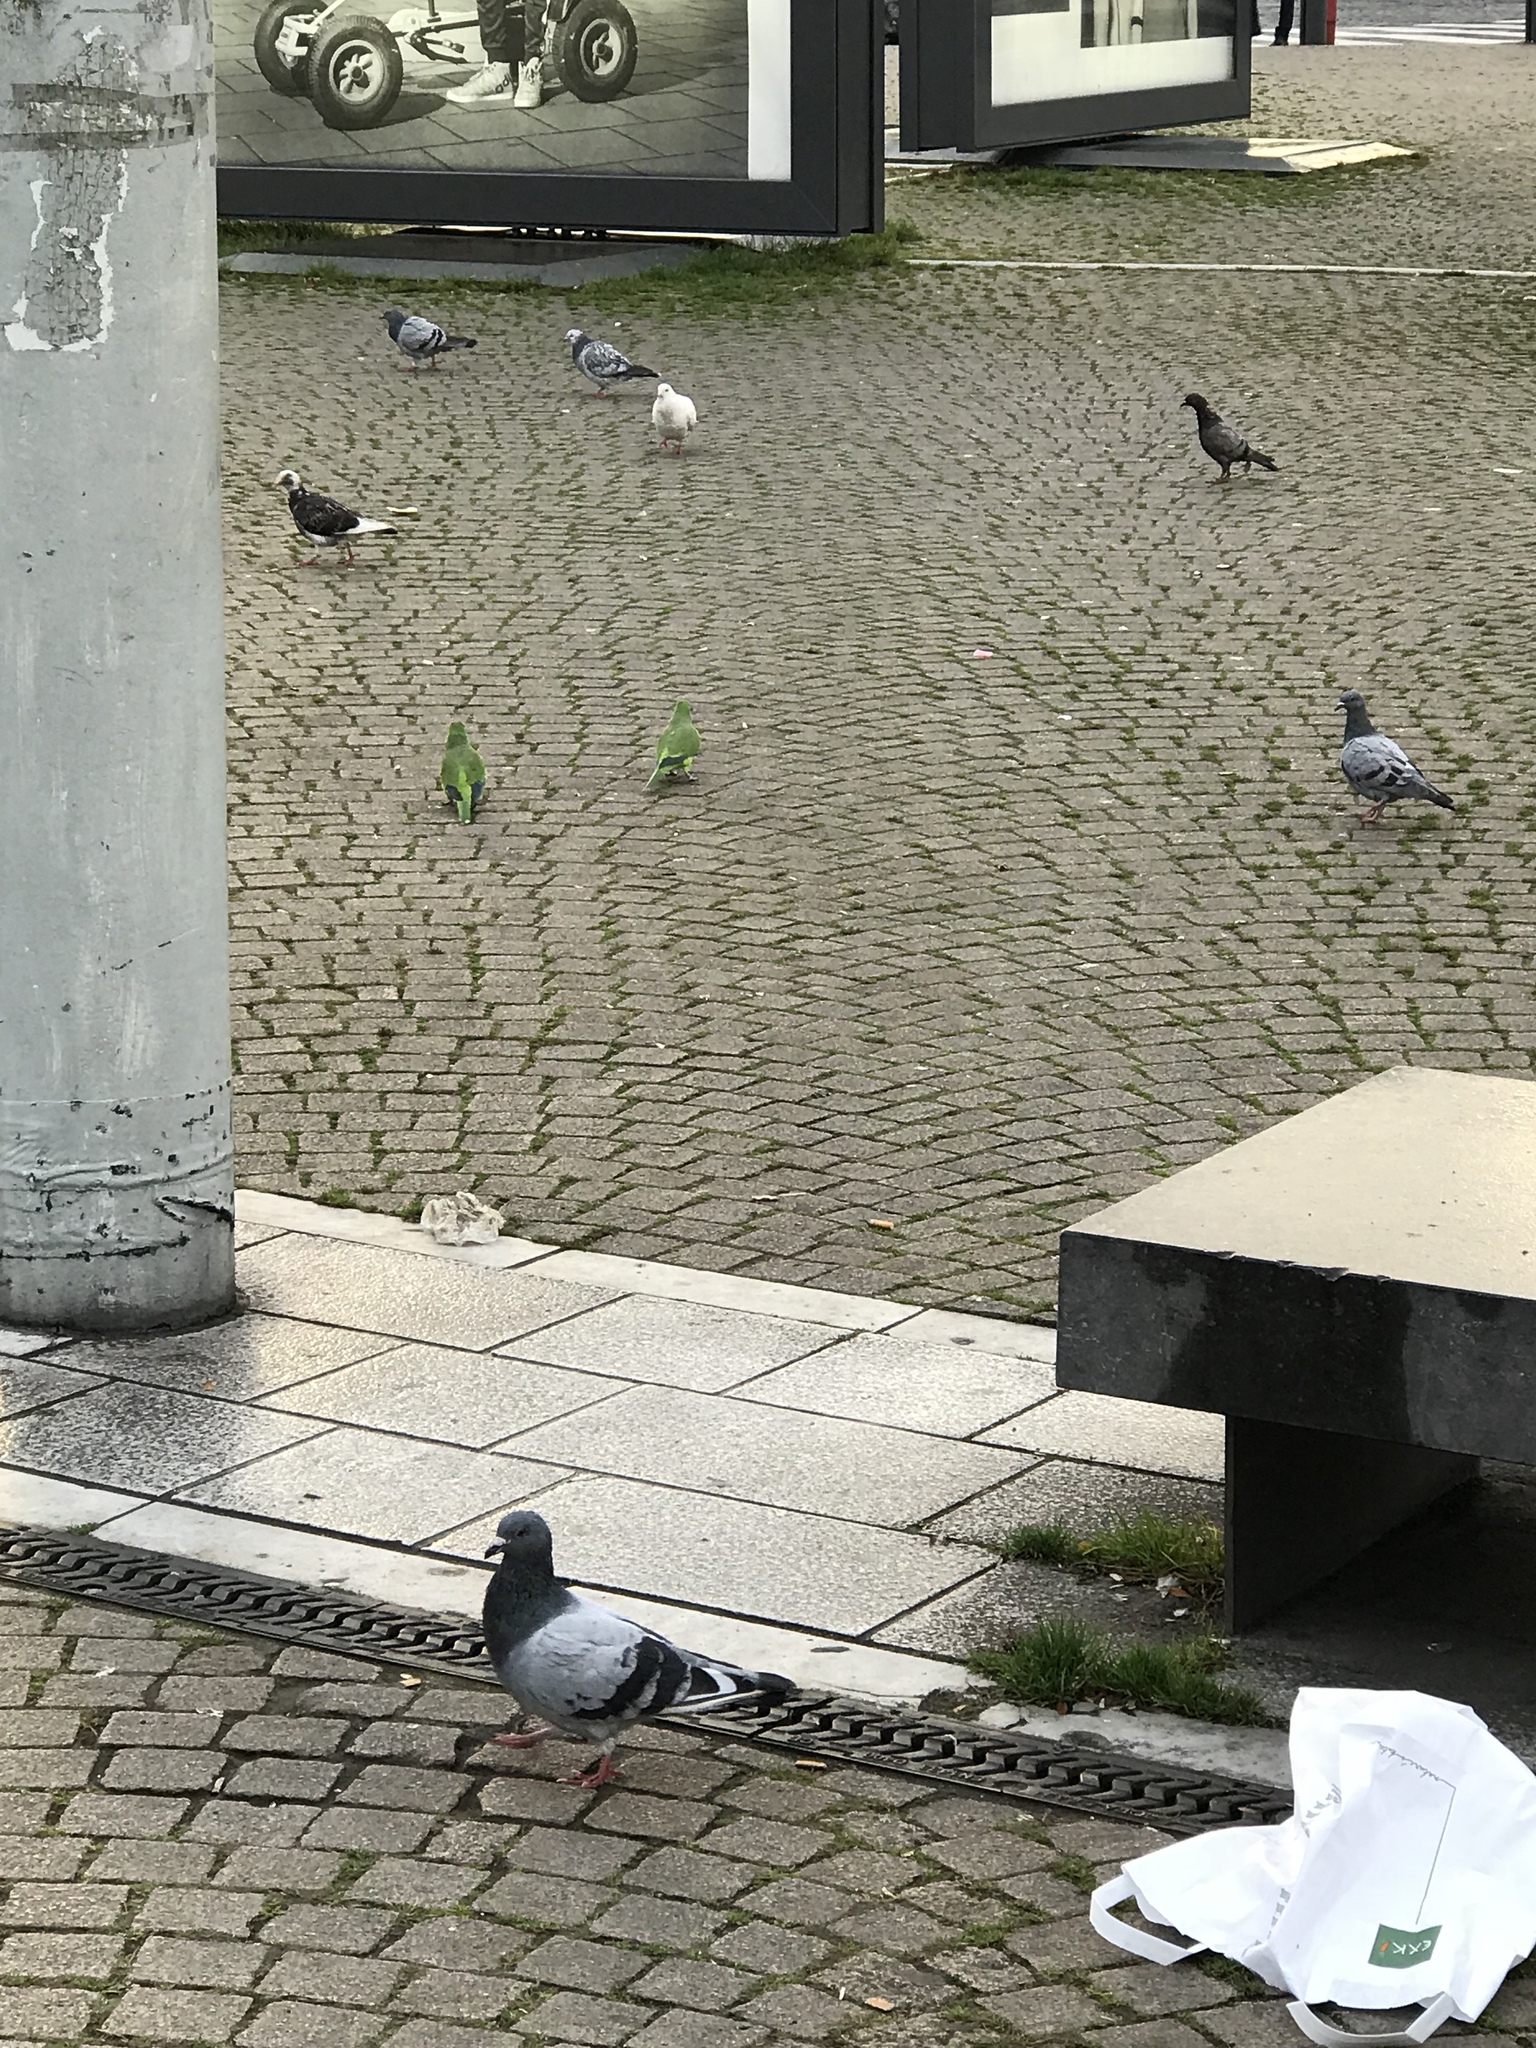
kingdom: Animalia
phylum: Chordata
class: Aves
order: Columbiformes
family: Columbidae
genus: Columba
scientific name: Columba livia
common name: Rock pigeon
